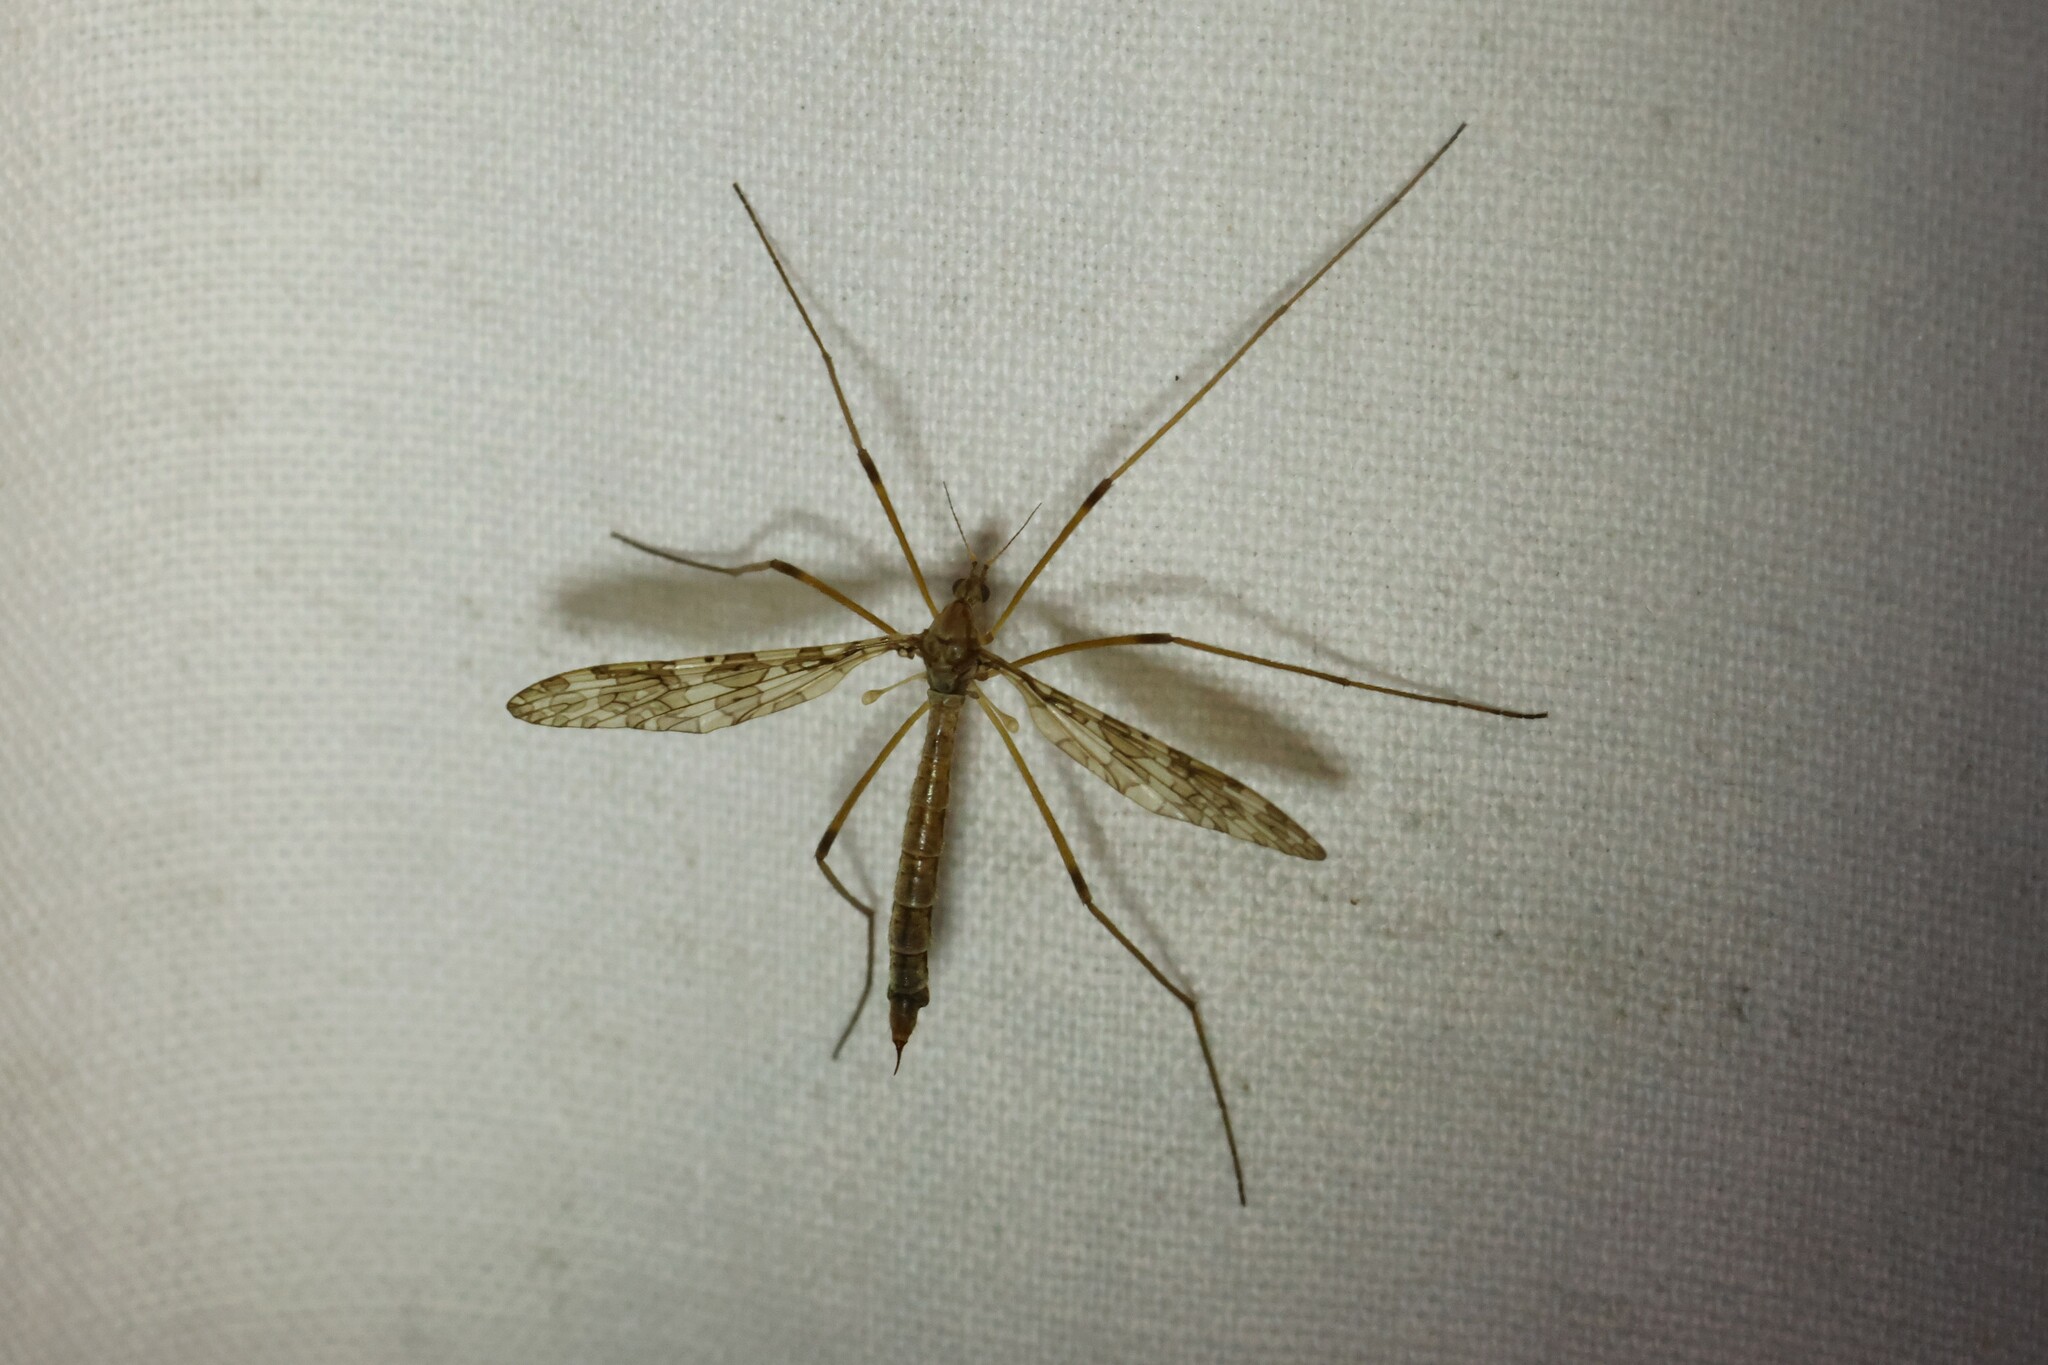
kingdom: Animalia
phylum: Arthropoda
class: Insecta
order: Diptera
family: Limoniidae
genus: Epiphragma
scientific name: Epiphragma fasciapenne
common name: Band-winged crane fly
